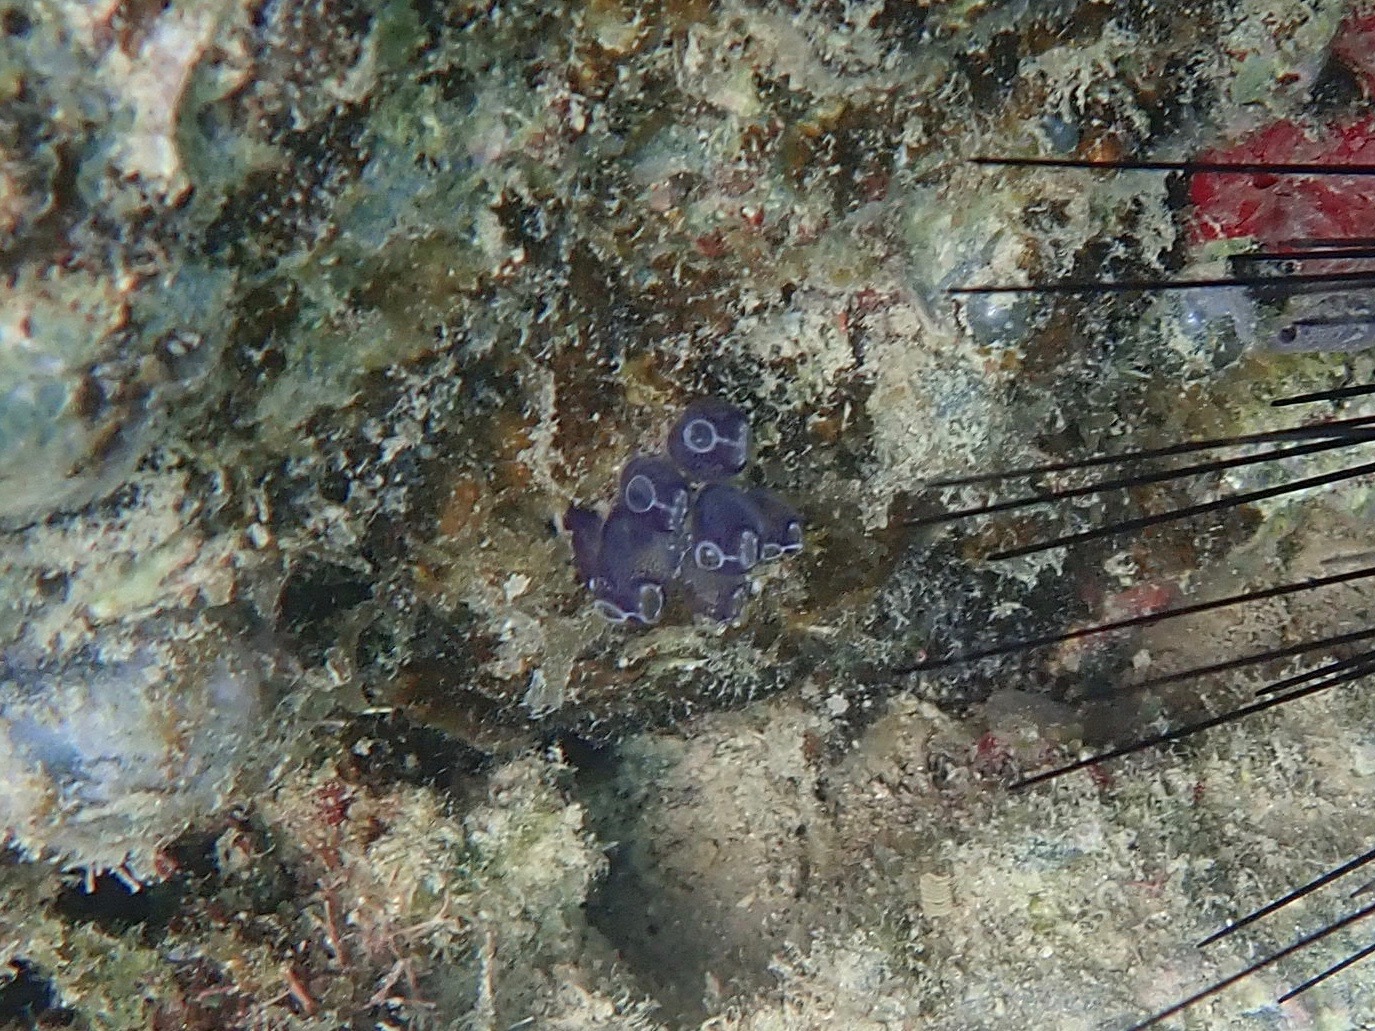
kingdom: Animalia
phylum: Chordata
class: Ascidiacea
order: Aplousobranchia
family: Clavelinidae
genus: Clavelina
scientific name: Clavelina puertosecensis
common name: Blue bell tunicate
